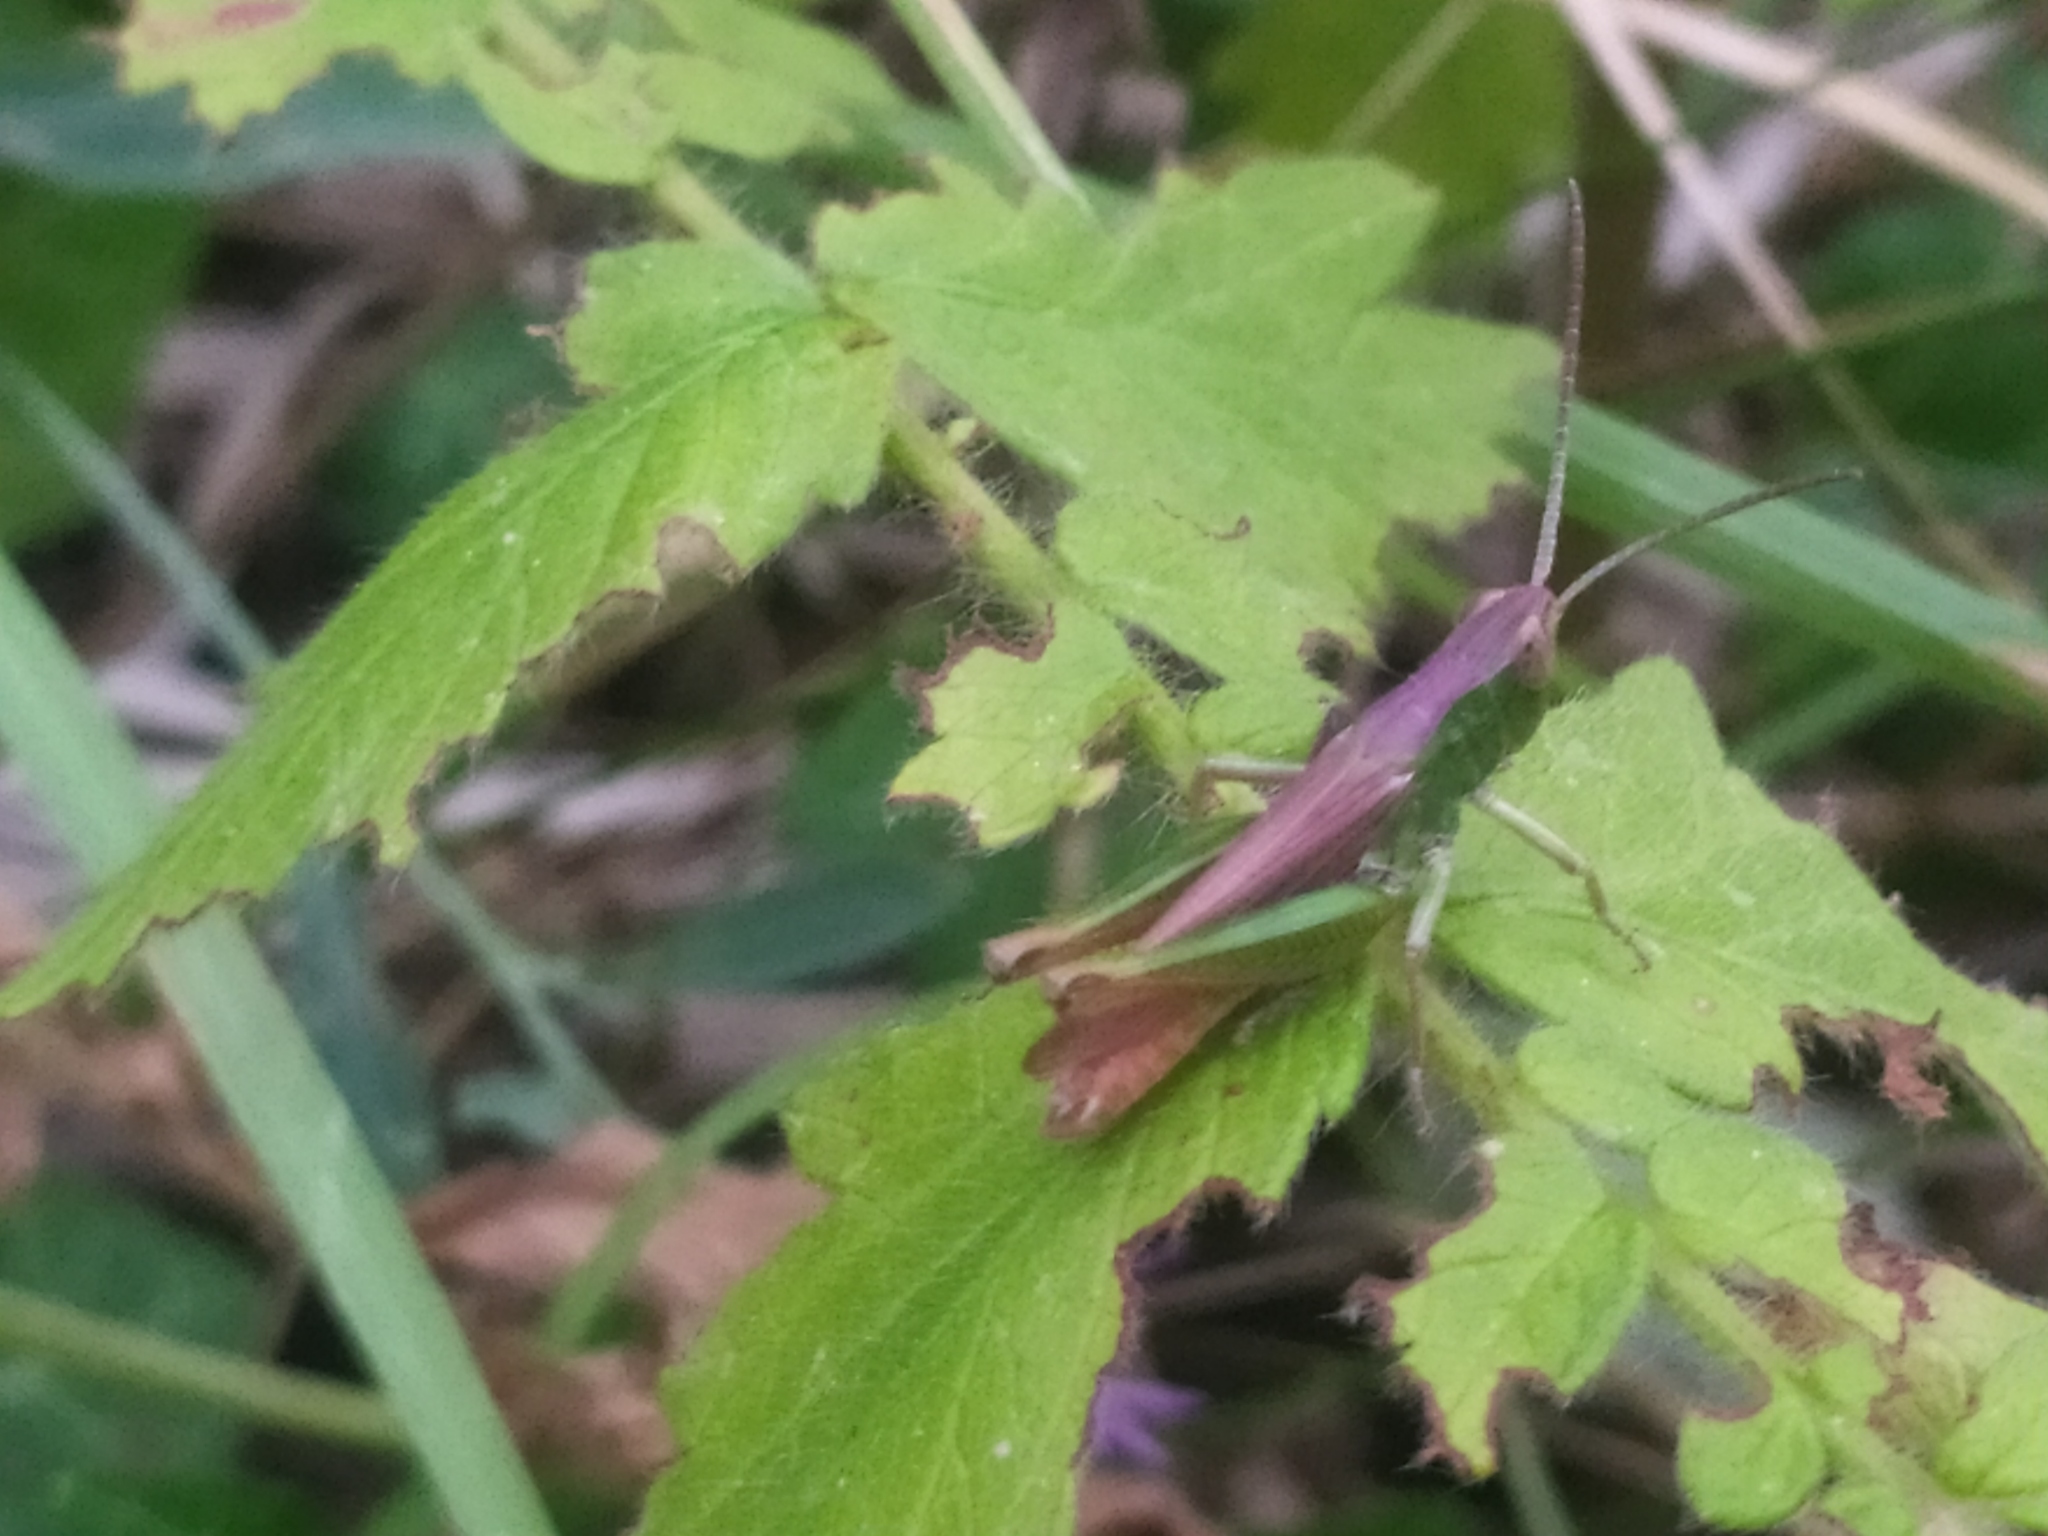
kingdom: Animalia
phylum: Arthropoda
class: Insecta
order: Orthoptera
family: Acrididae
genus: Chorthippus
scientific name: Chorthippus dorsatus
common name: Steppe grasshopper
